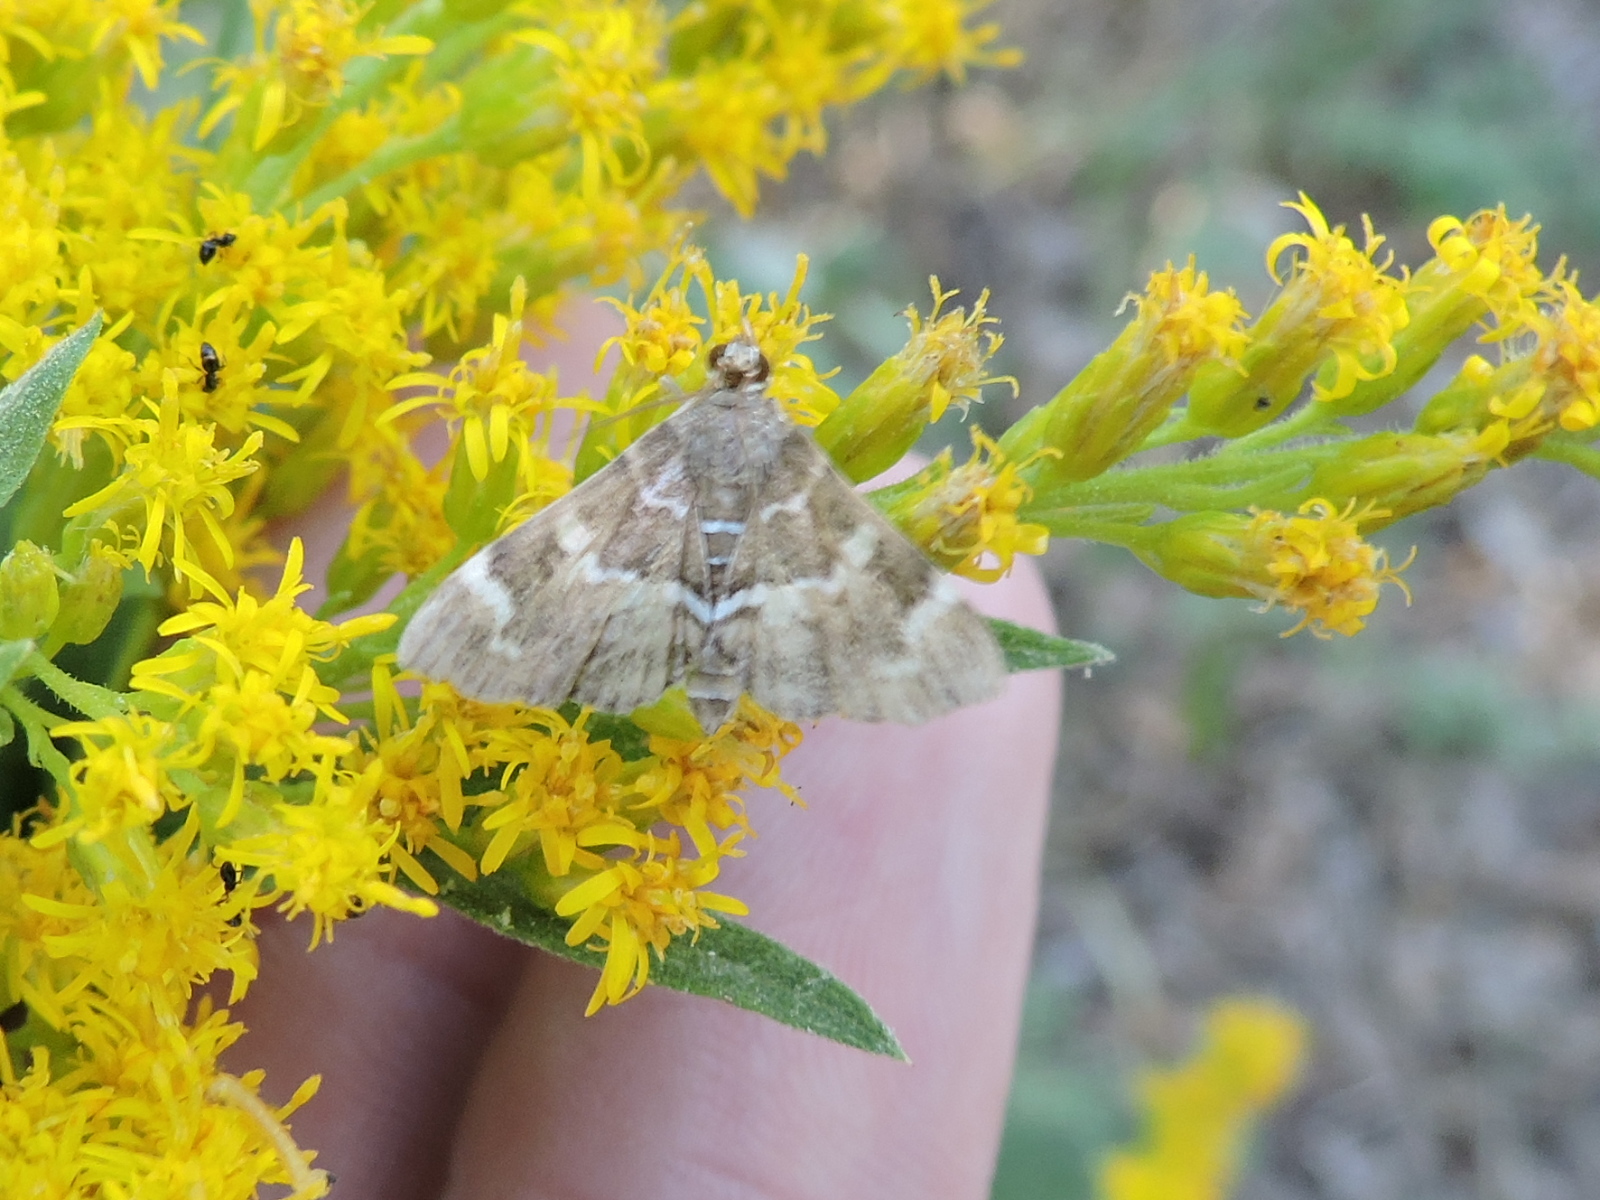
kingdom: Animalia
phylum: Arthropoda
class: Insecta
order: Lepidoptera
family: Crambidae
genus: Hymenia
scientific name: Hymenia perspectalis
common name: Spotted beet webworm
